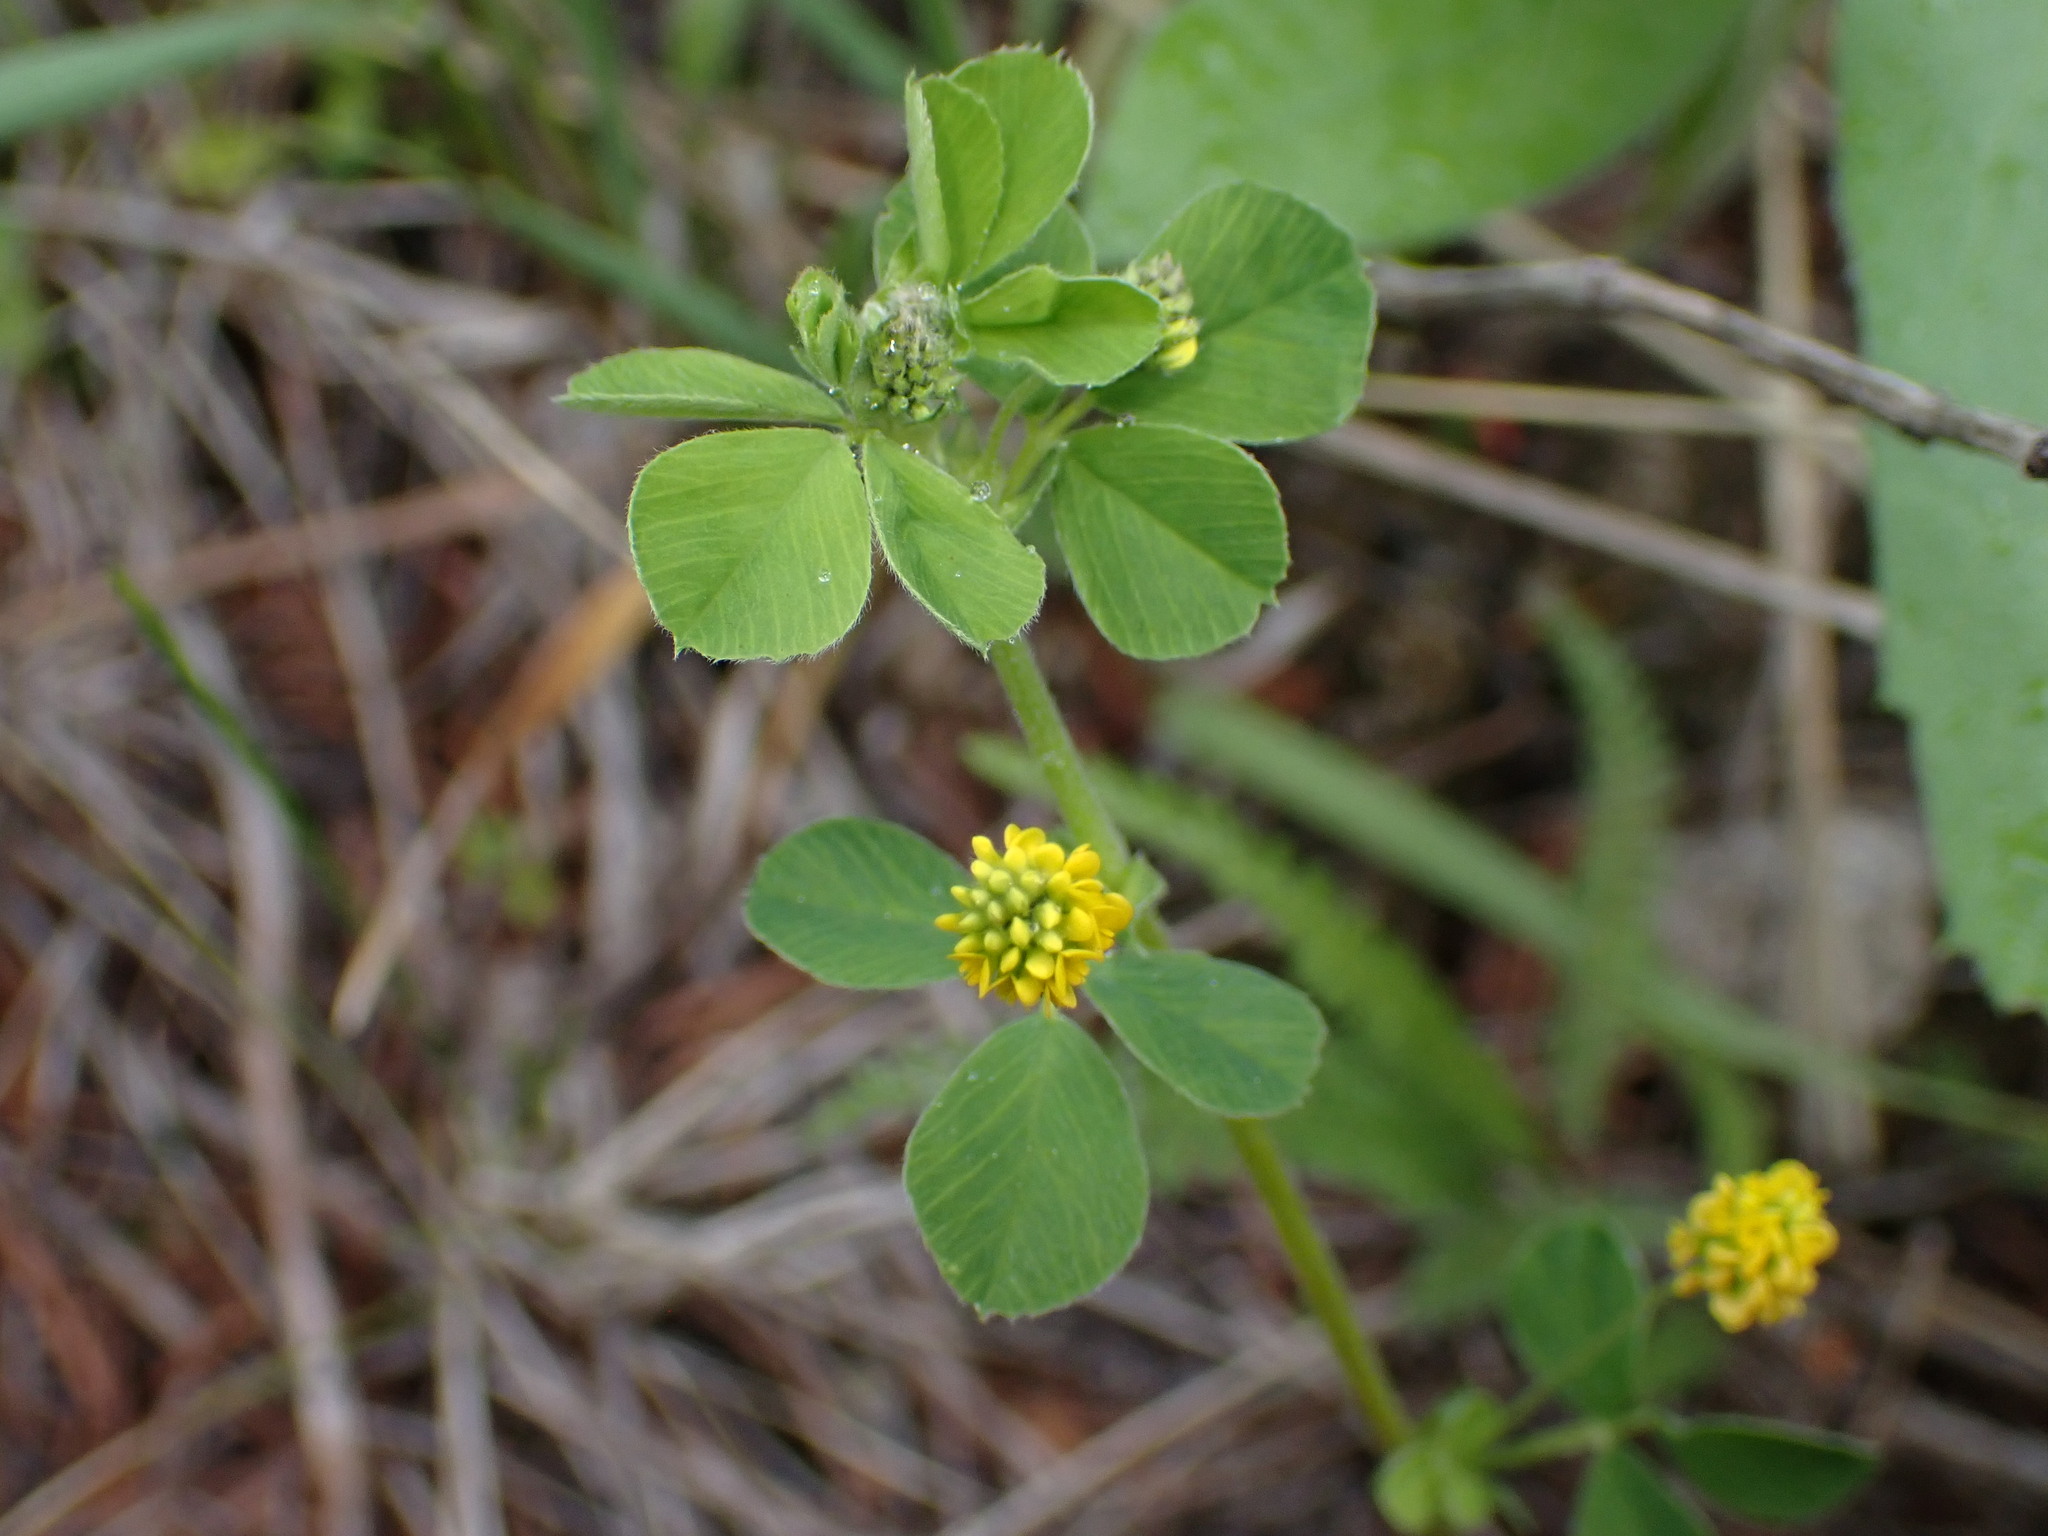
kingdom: Plantae
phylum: Tracheophyta
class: Magnoliopsida
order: Fabales
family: Fabaceae
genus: Medicago
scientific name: Medicago lupulina
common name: Black medick
